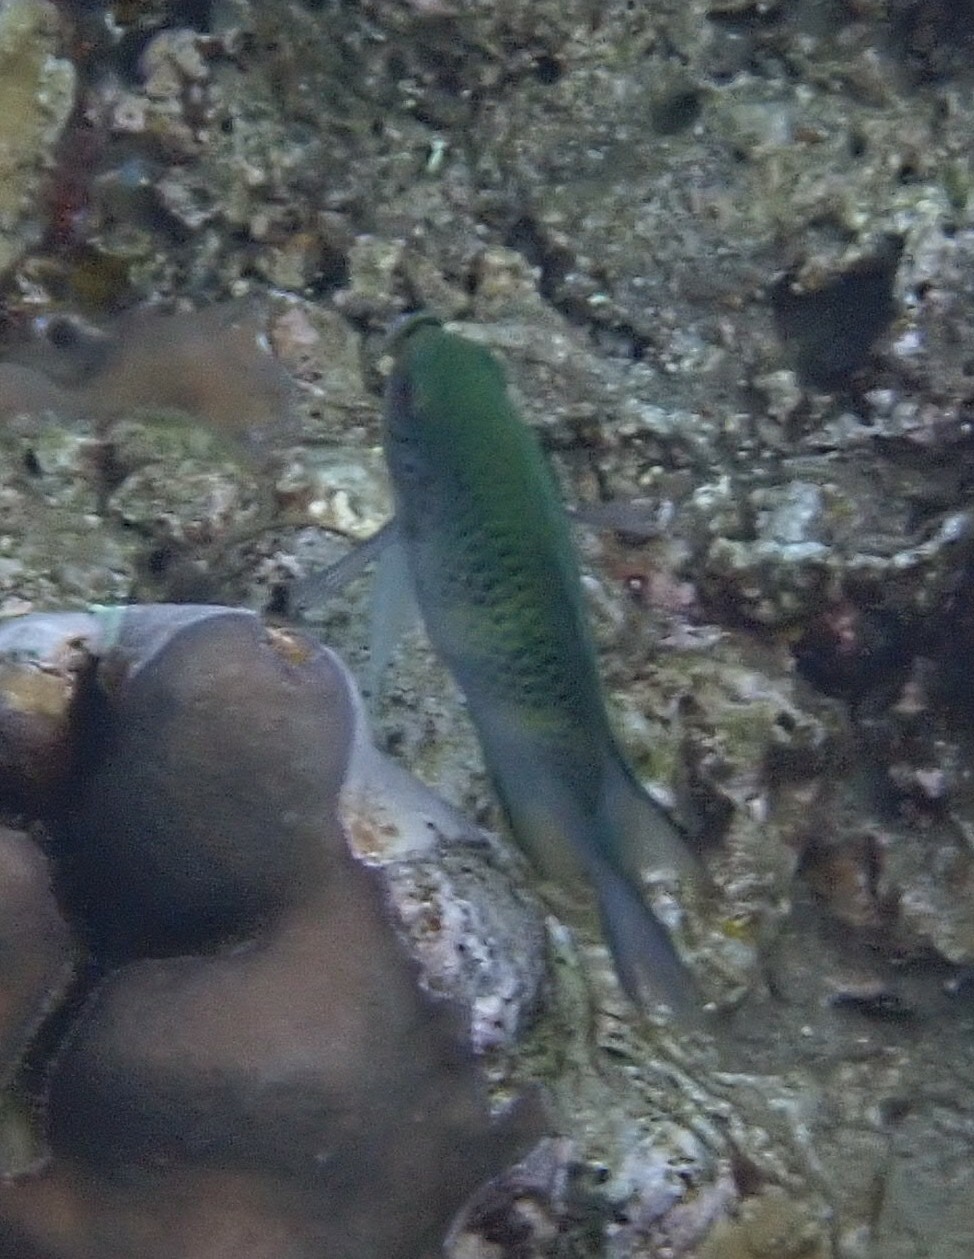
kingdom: Animalia
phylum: Chordata
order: Perciformes
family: Pomacentridae
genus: Amblyglyphidodon
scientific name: Amblyglyphidodon curacao
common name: Staghorn damsel
